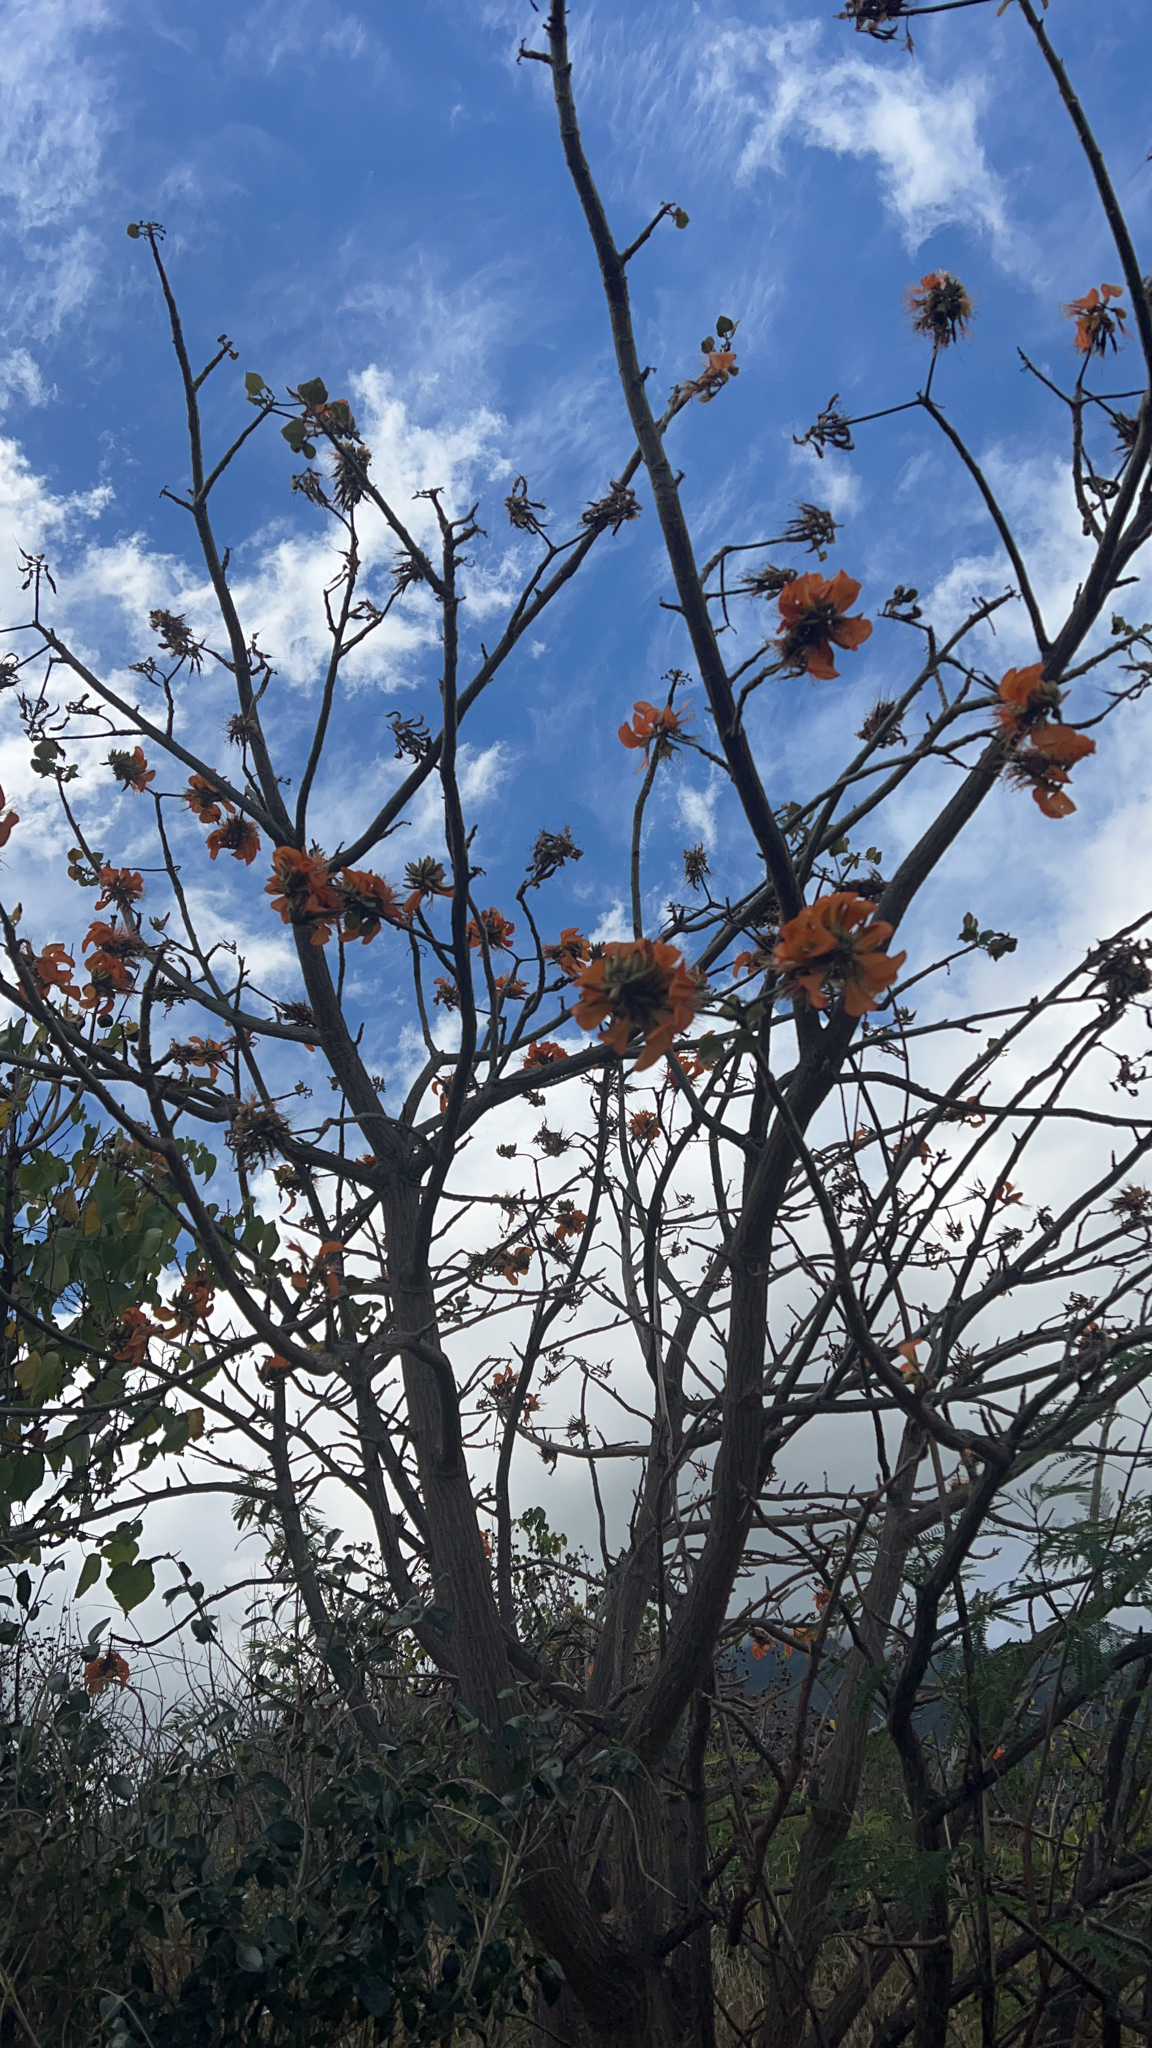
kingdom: Plantae
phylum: Tracheophyta
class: Magnoliopsida
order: Fabales
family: Fabaceae
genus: Erythrina
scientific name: Erythrina sandwicensis
